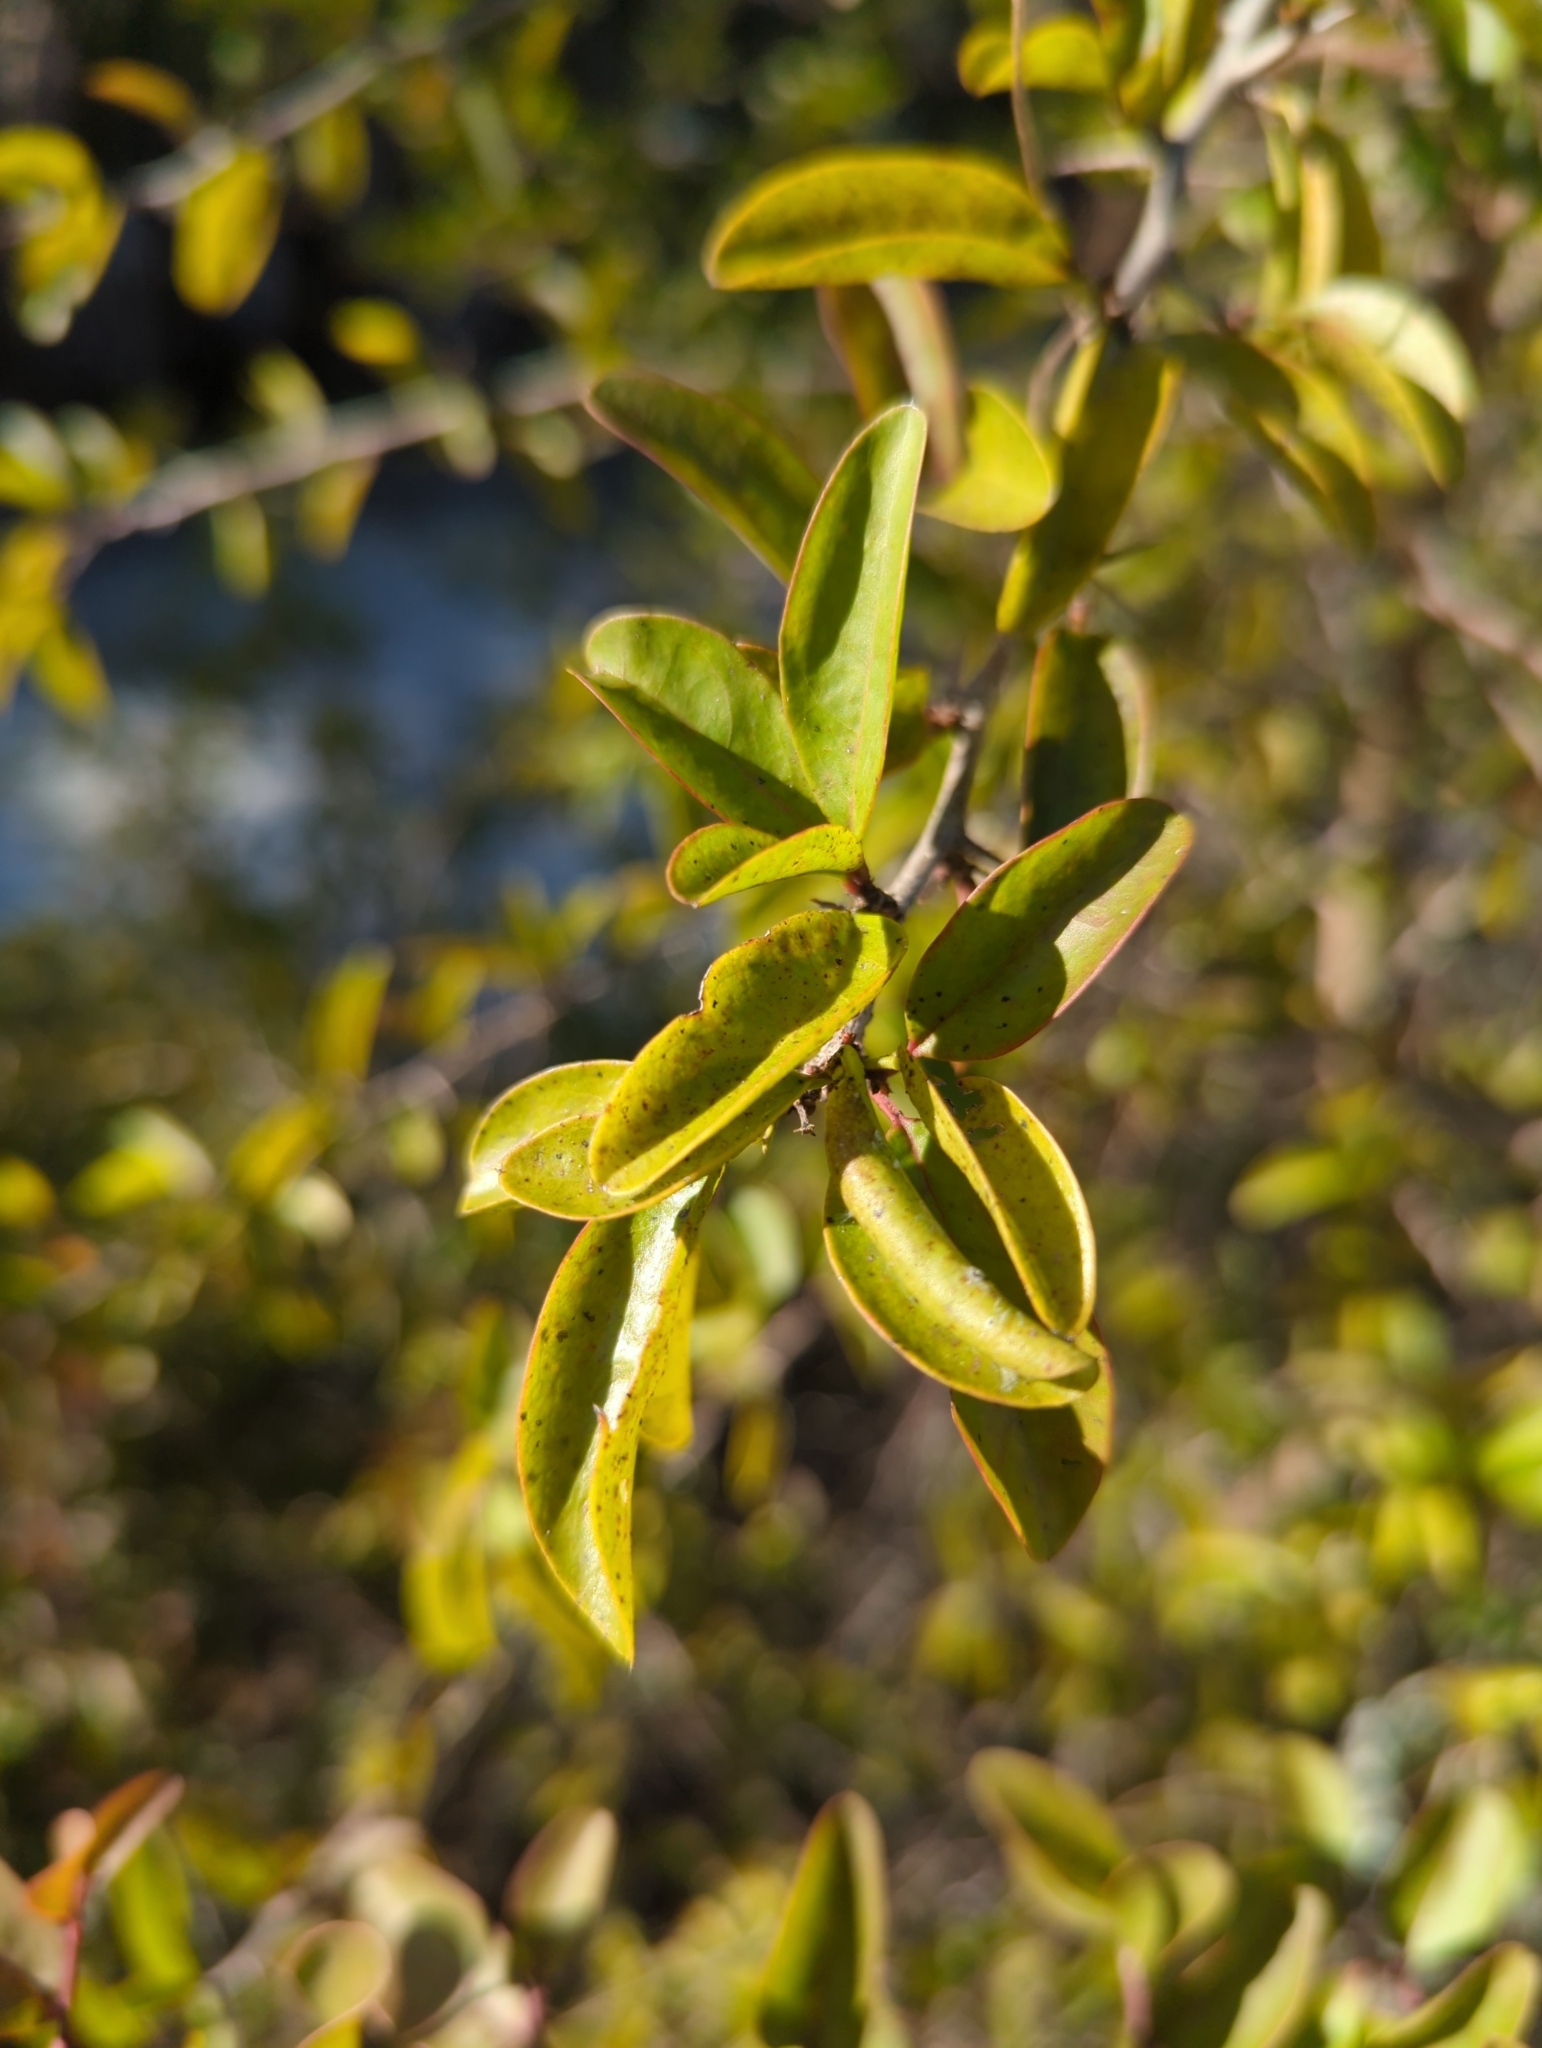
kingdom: Plantae
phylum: Tracheophyta
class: Magnoliopsida
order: Santalales
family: Ximeniaceae
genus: Ximenia
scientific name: Ximenia americana
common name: Tallowwood
